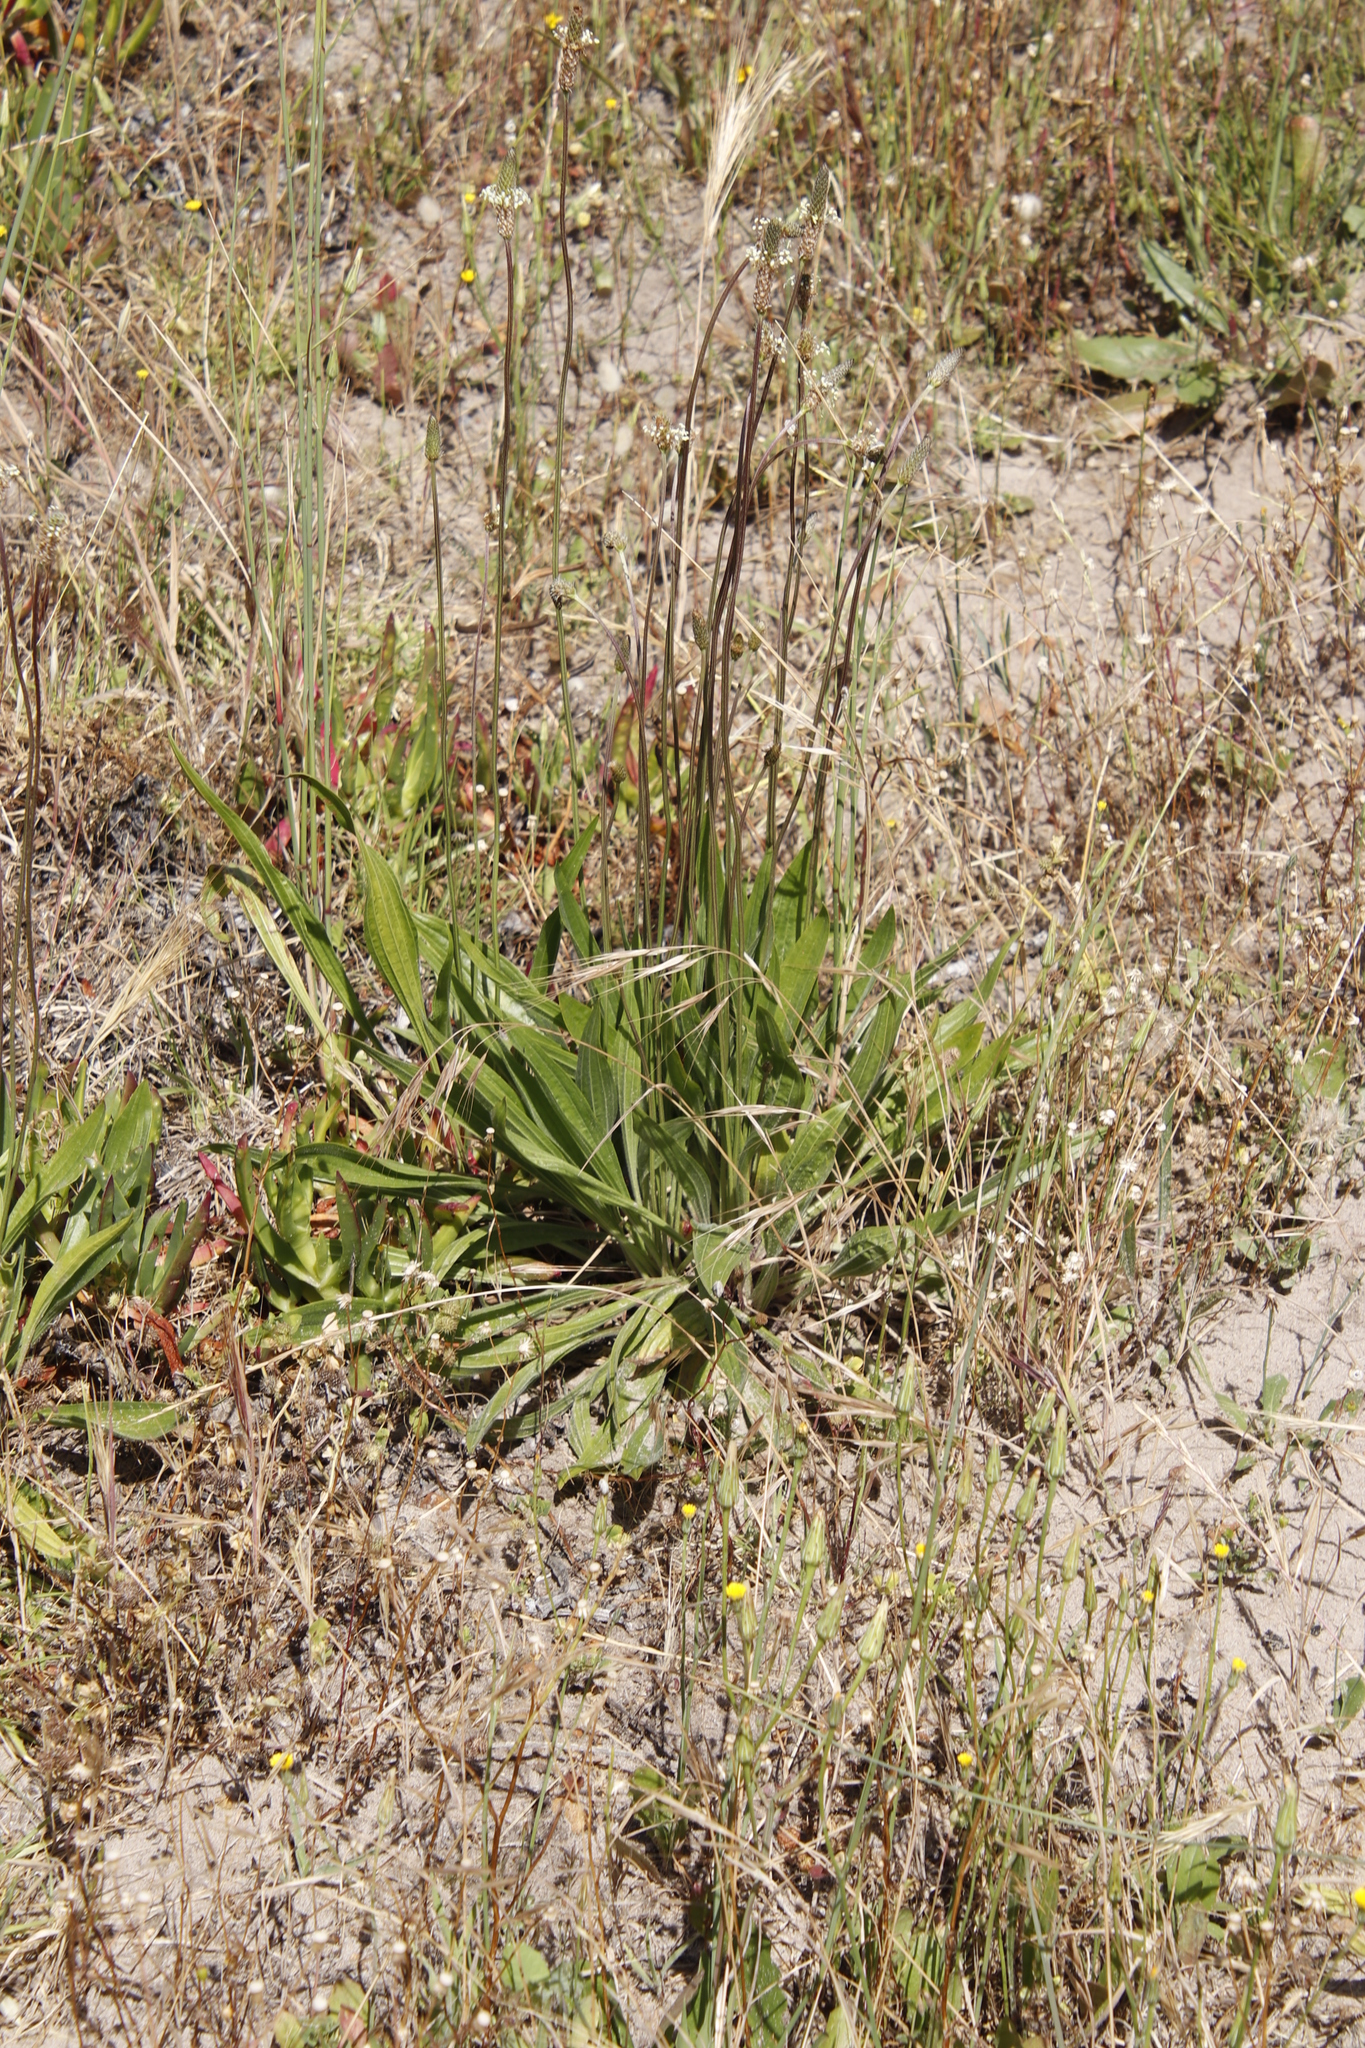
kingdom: Plantae
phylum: Tracheophyta
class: Magnoliopsida
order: Lamiales
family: Plantaginaceae
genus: Plantago
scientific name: Plantago lanceolata
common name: Ribwort plantain
